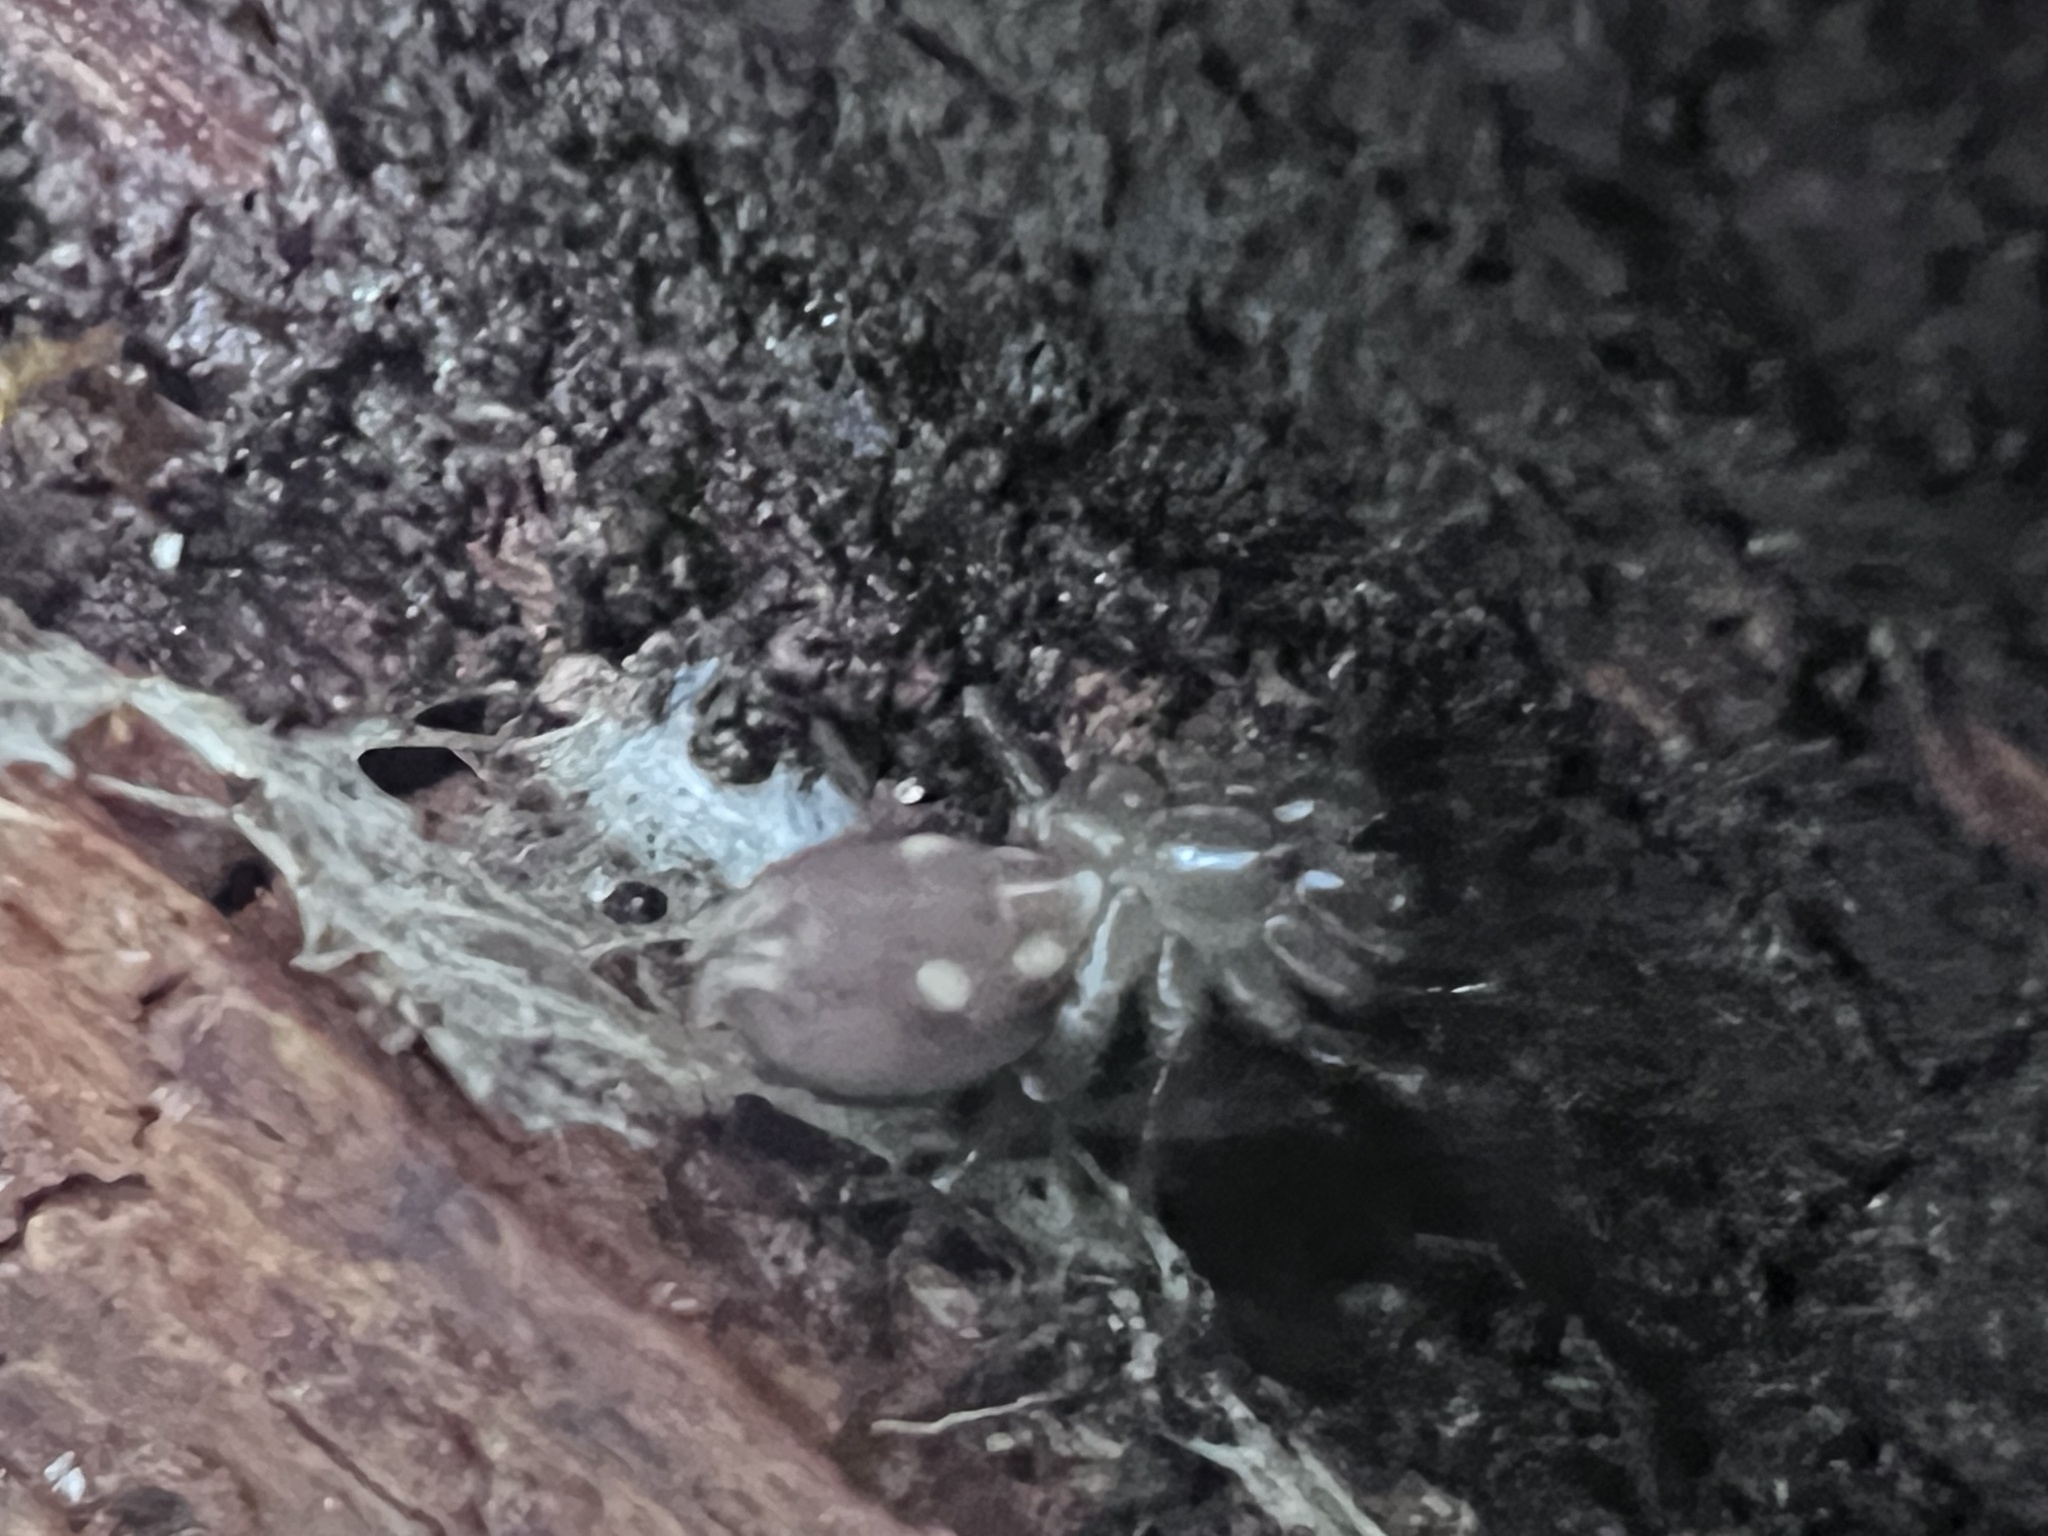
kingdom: Animalia
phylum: Arthropoda
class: Arachnida
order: Araneae
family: Antrodiaetidae
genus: Antrodiaetus
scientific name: Antrodiaetus pacificus
